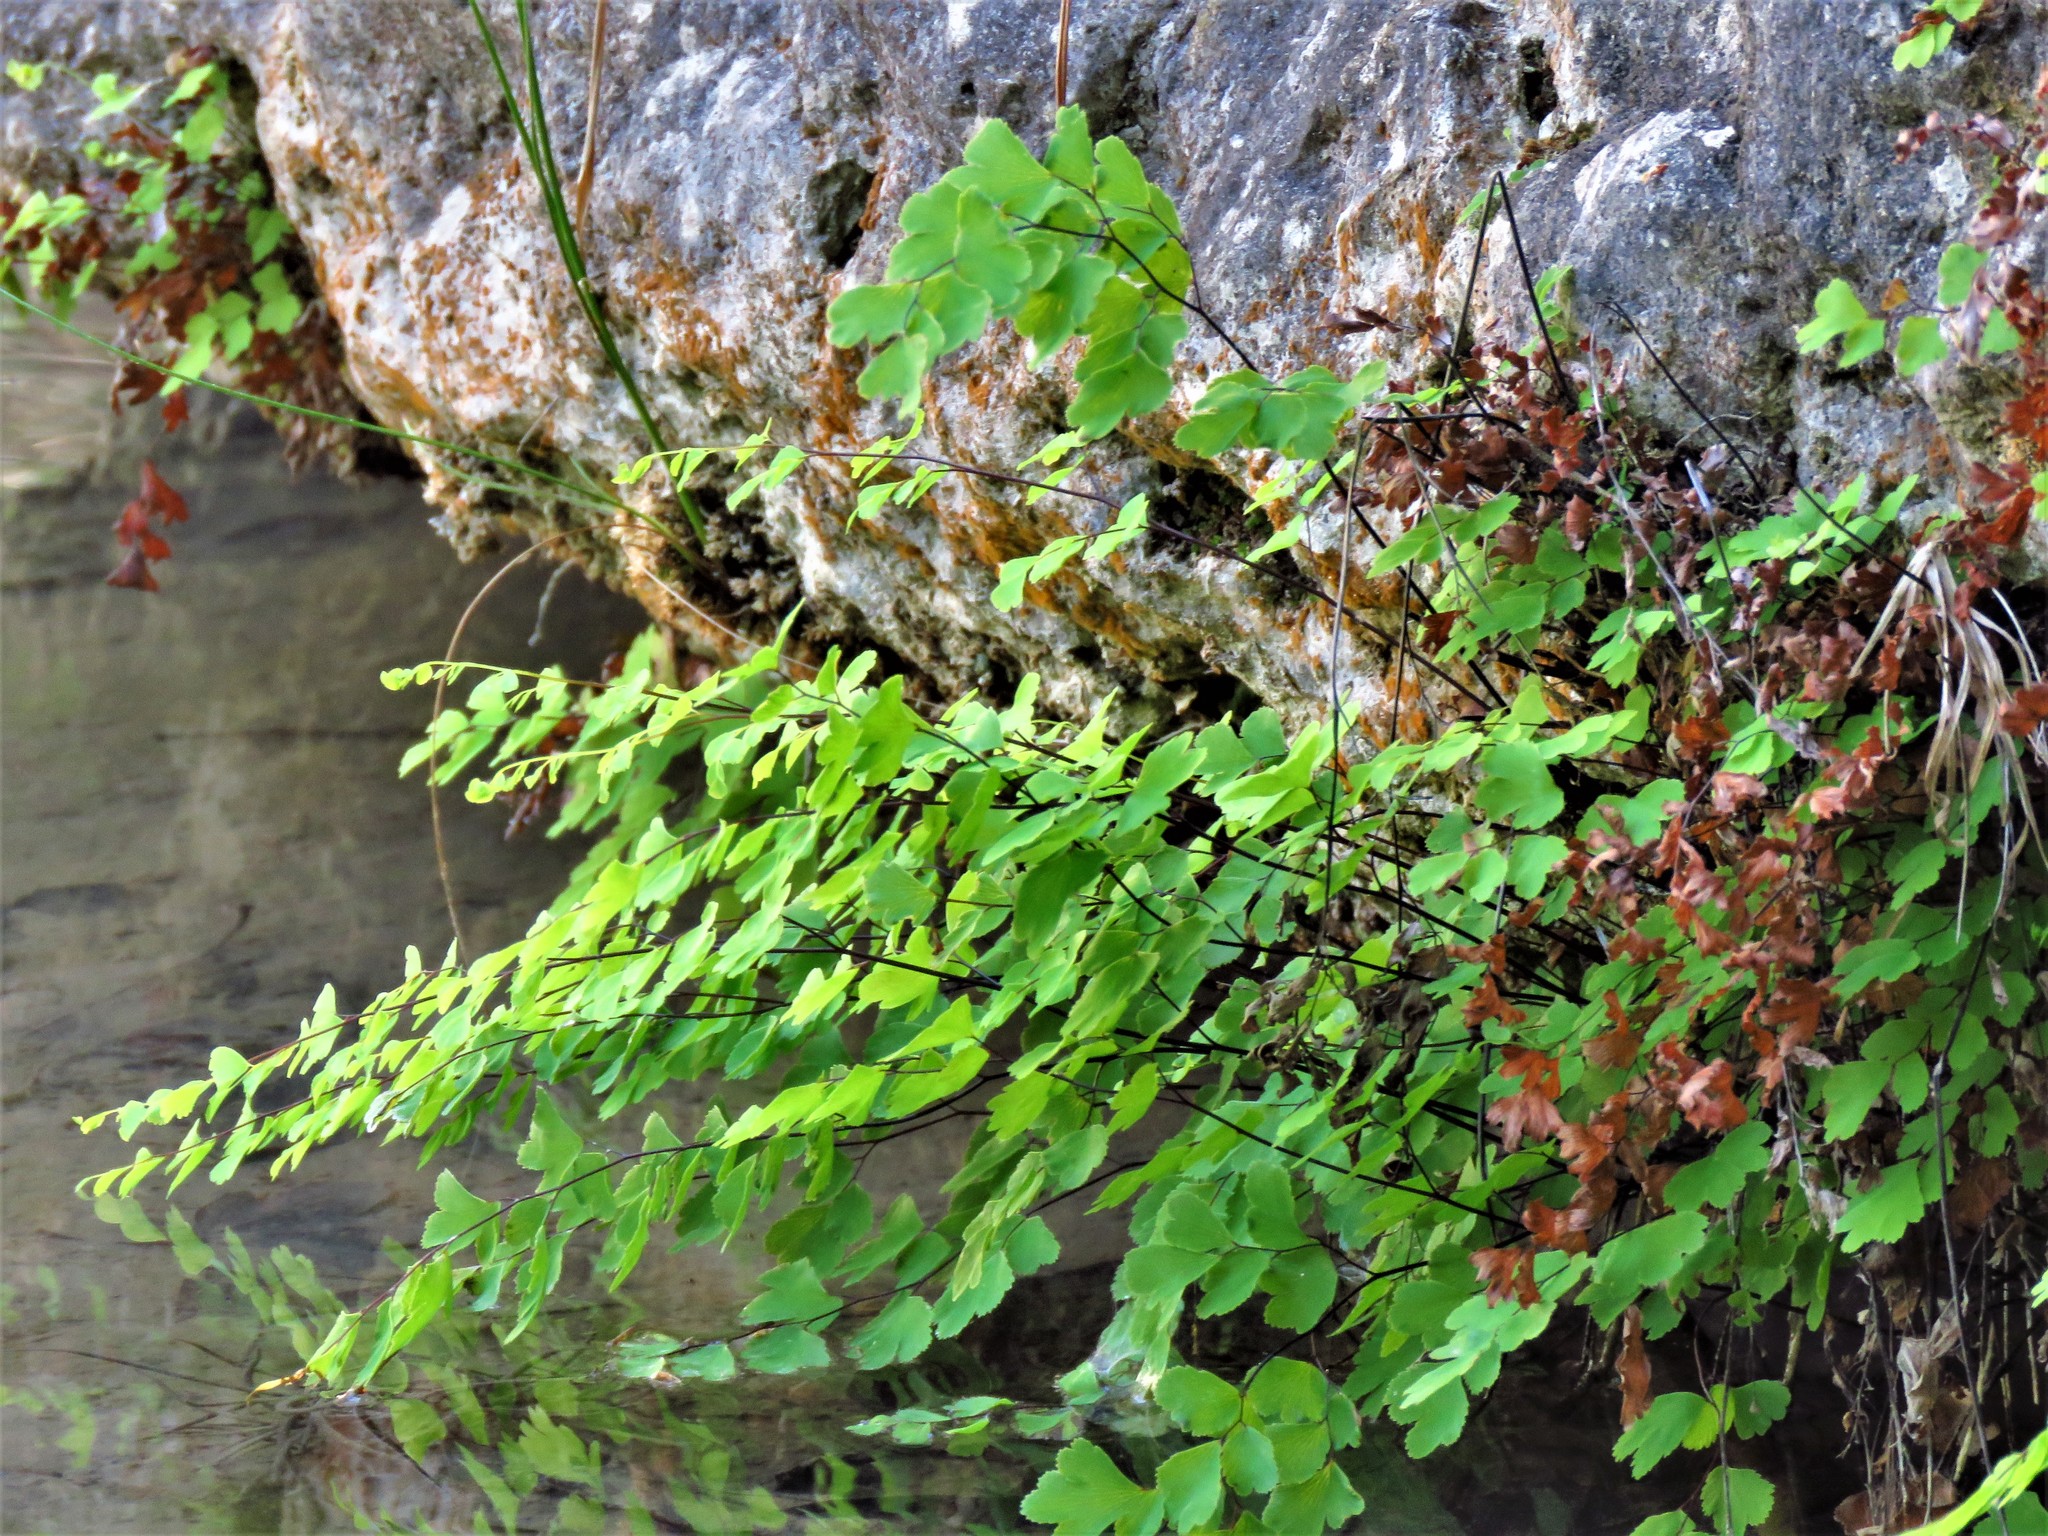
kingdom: Plantae
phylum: Tracheophyta
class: Polypodiopsida
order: Polypodiales
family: Pteridaceae
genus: Adiantum
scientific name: Adiantum capillus-veneris
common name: Maidenhair fern
